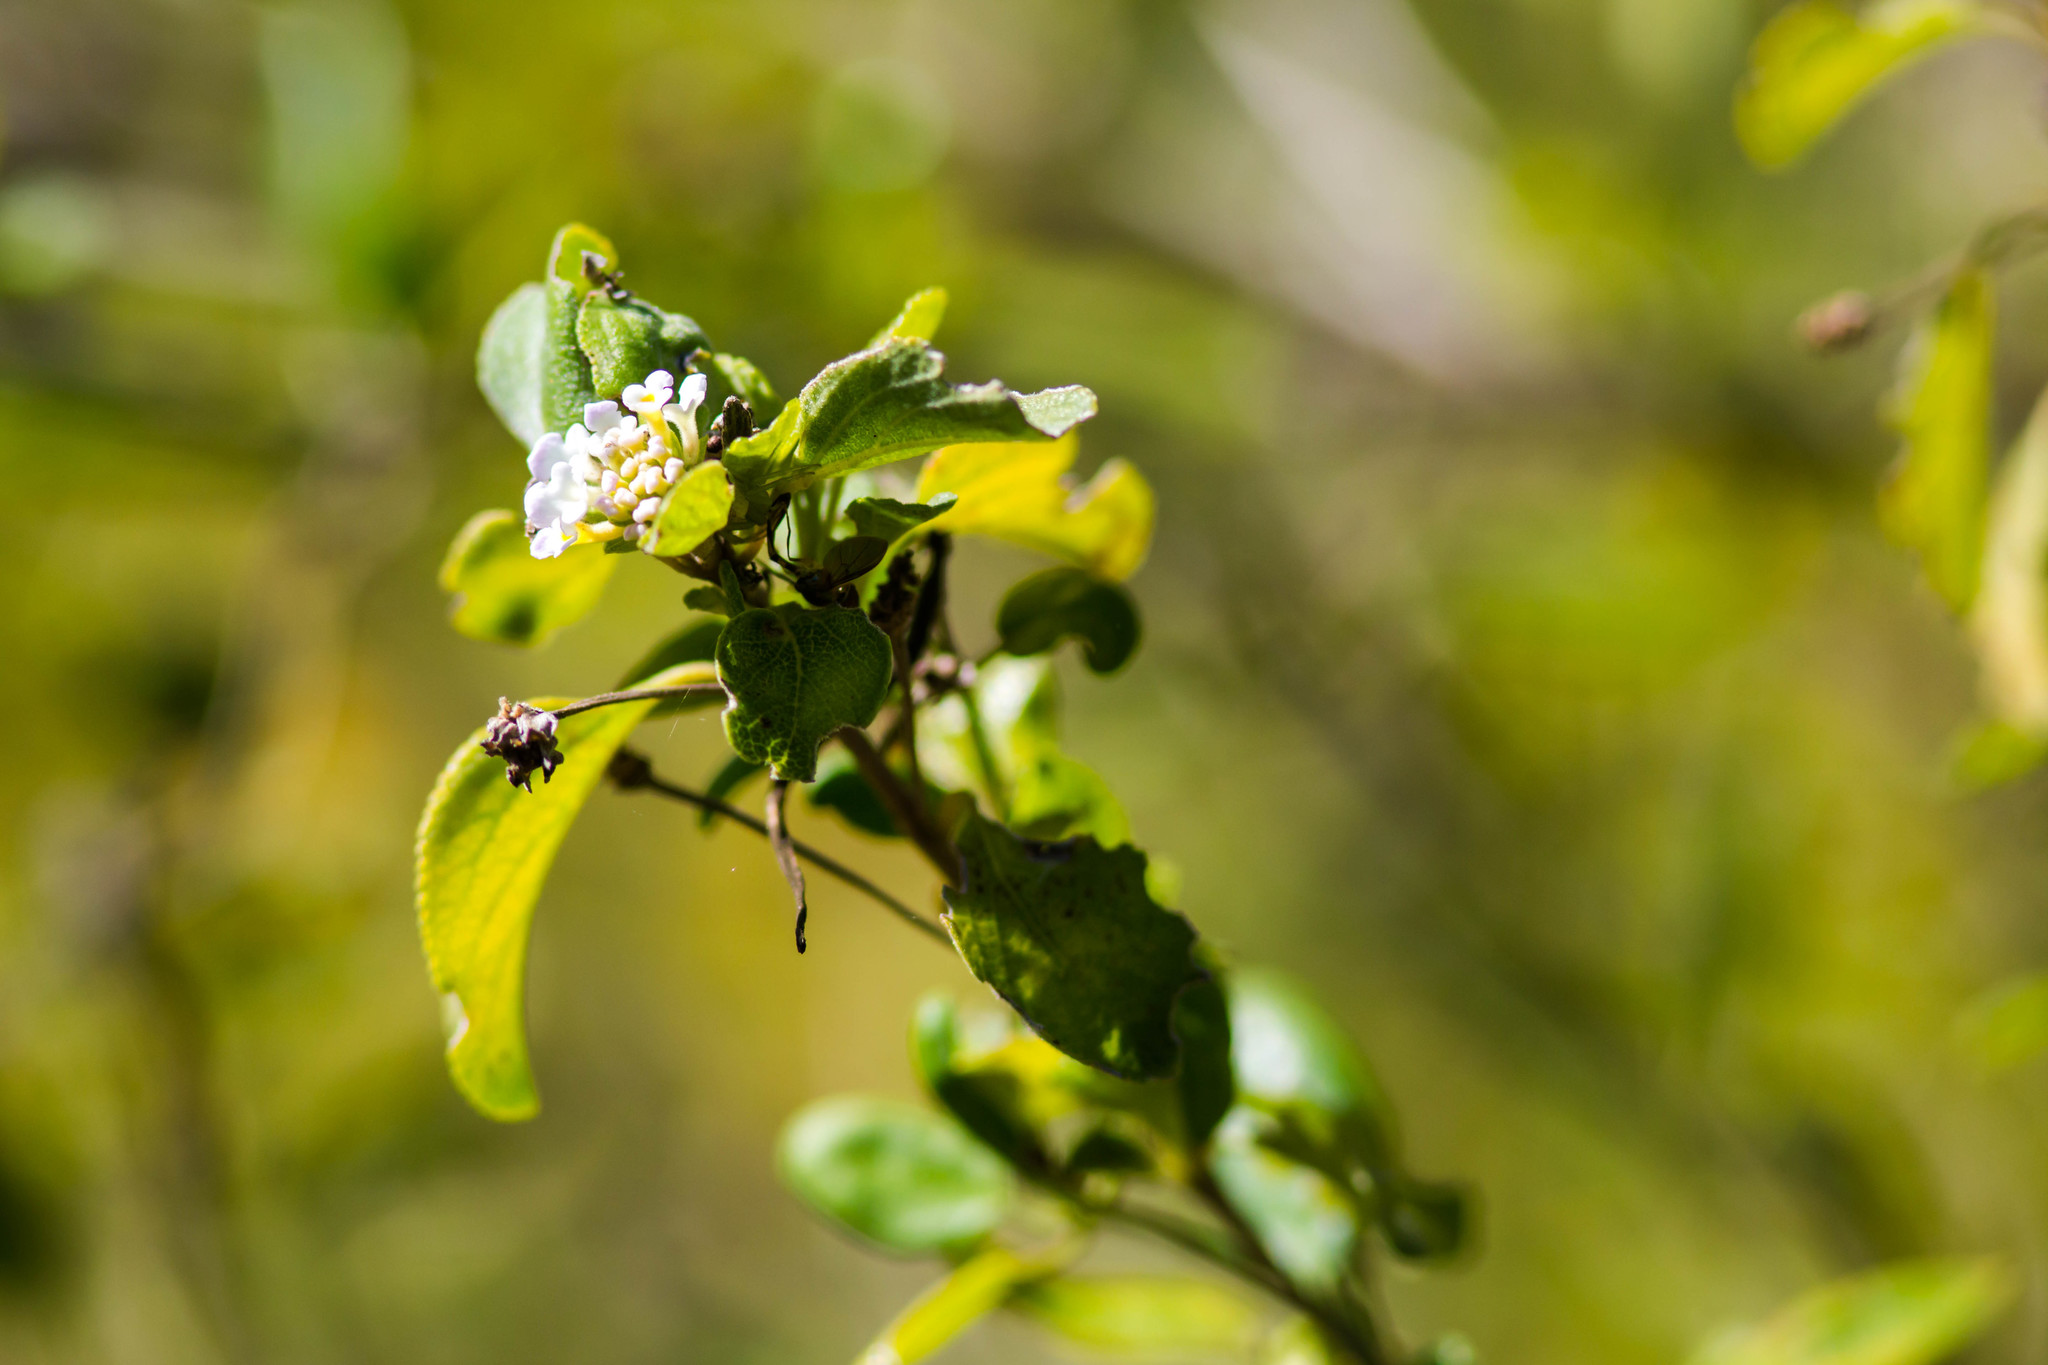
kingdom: Plantae
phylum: Tracheophyta
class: Magnoliopsida
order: Lamiales
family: Verbenaceae
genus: Lantana
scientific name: Lantana involucrata
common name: Black sage
